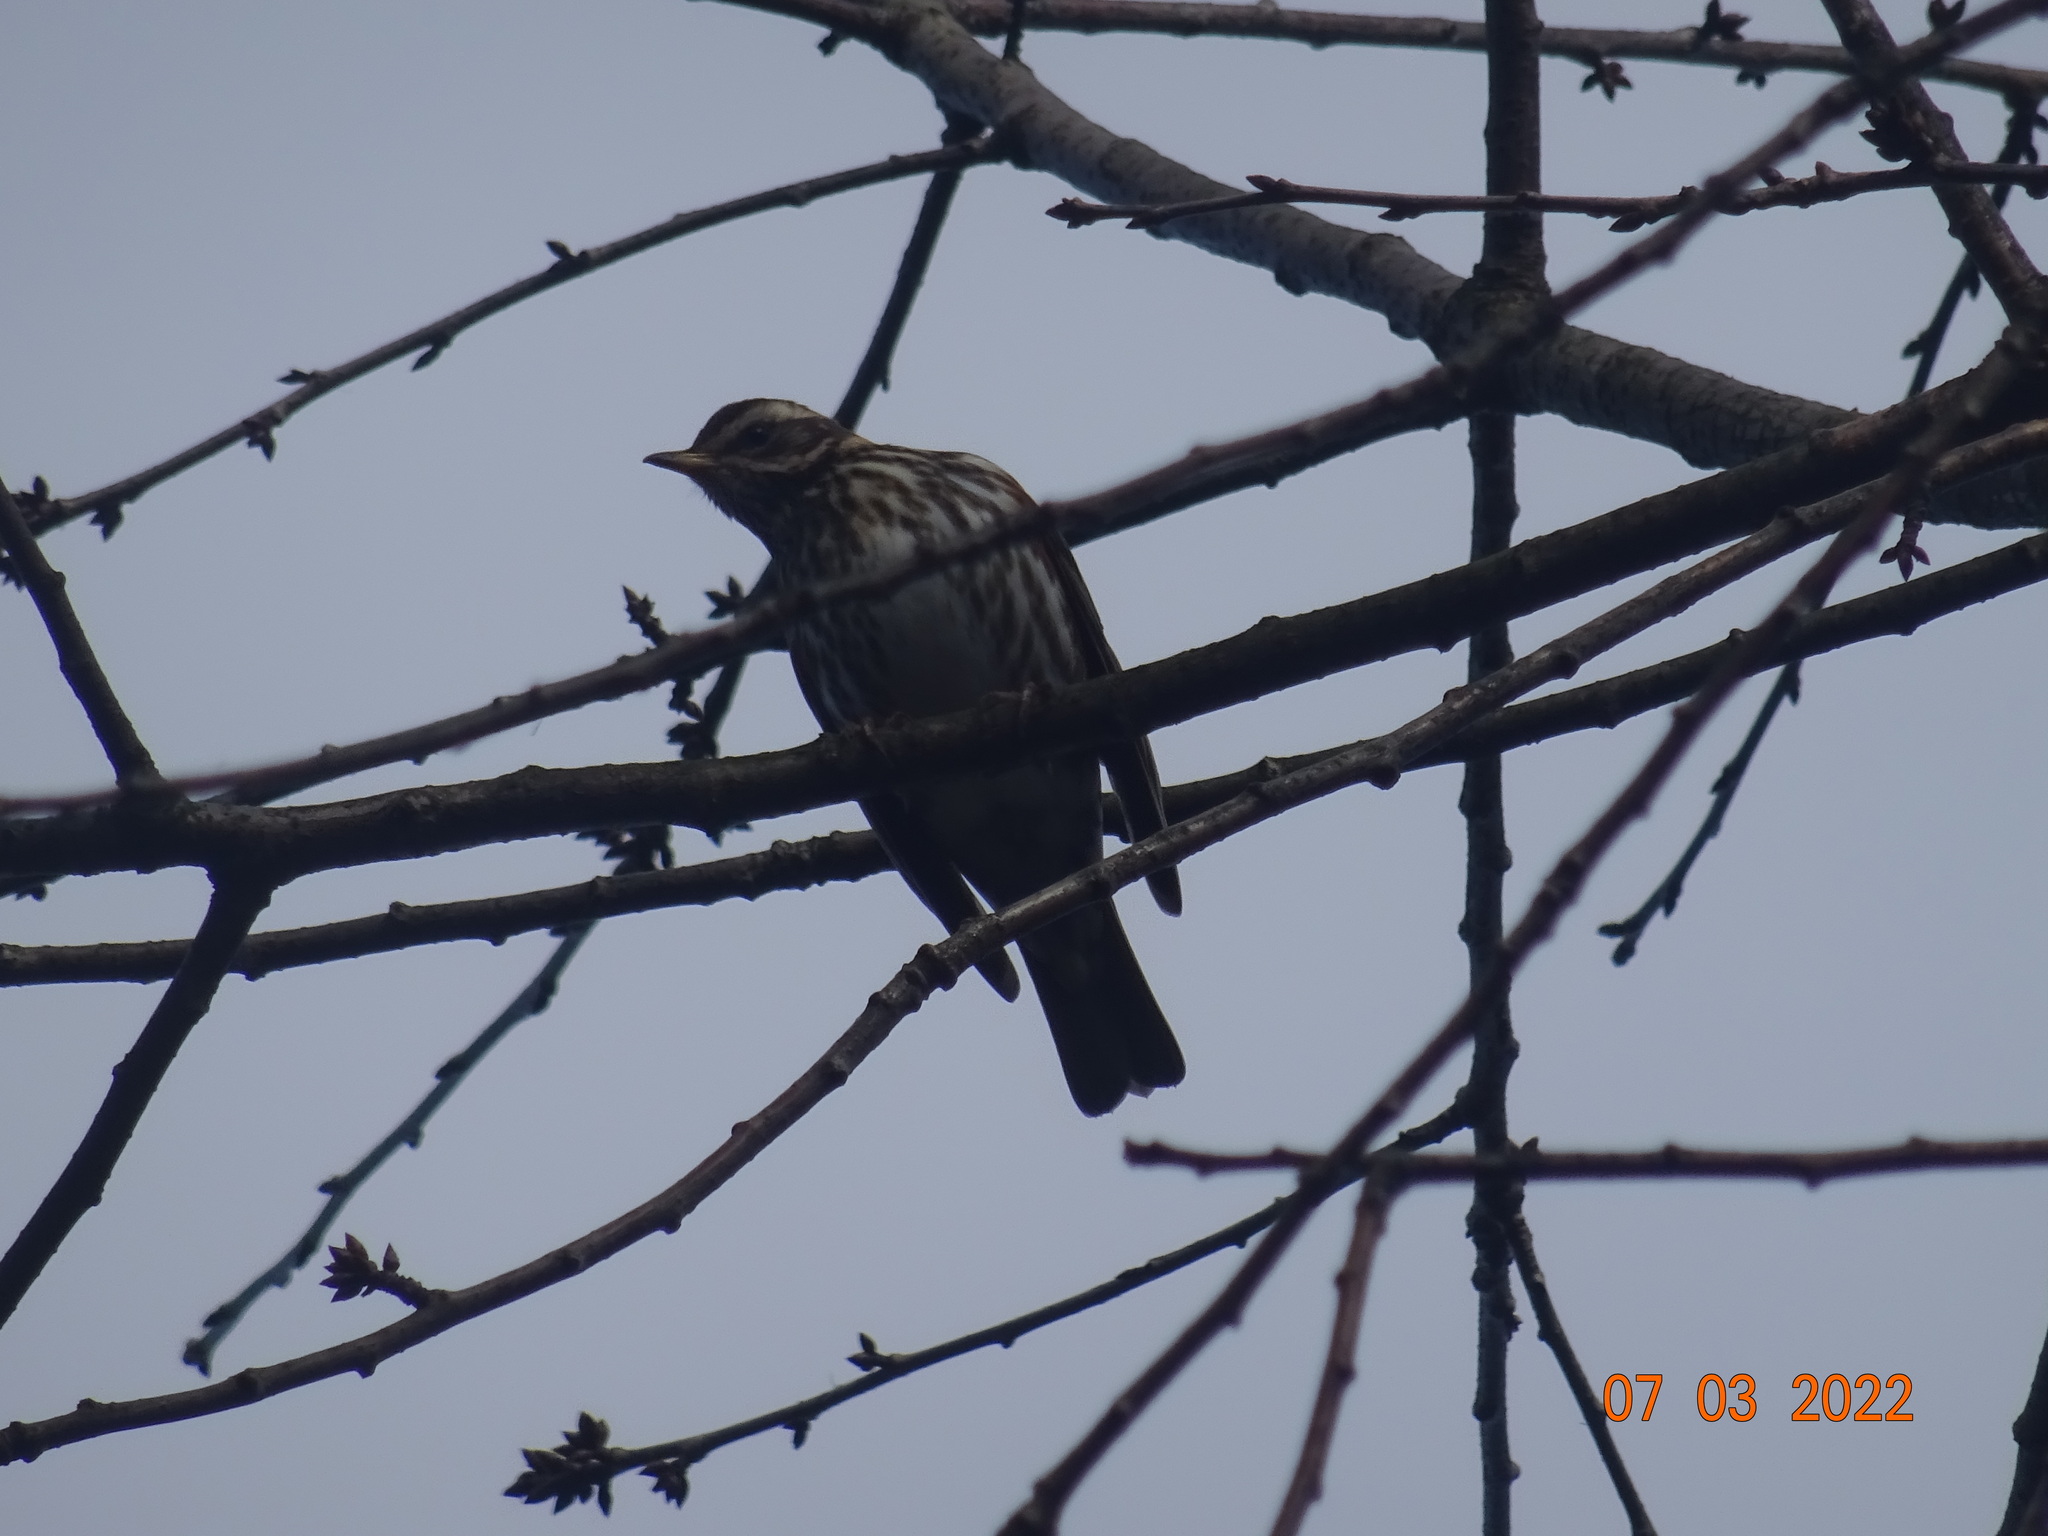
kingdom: Animalia
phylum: Chordata
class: Aves
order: Passeriformes
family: Turdidae
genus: Turdus
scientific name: Turdus iliacus
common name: Redwing
